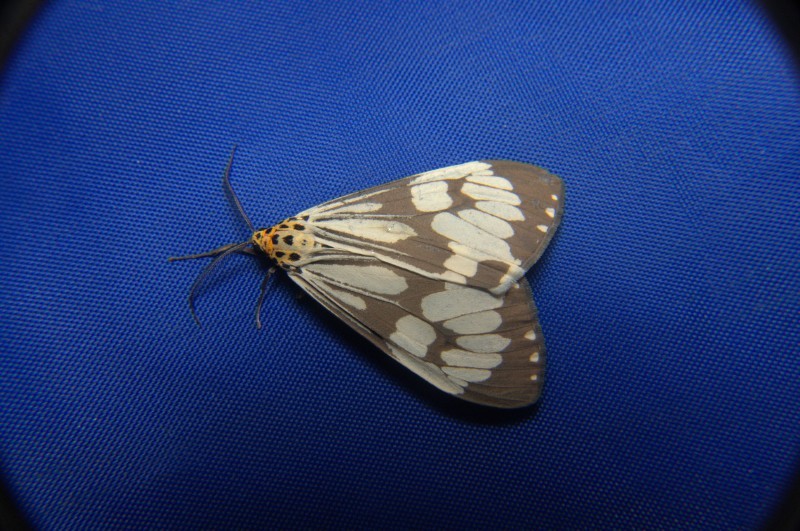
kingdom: Animalia
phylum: Arthropoda
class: Insecta
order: Lepidoptera
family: Erebidae
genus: Nyctemera
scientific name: Nyctemera adversata
